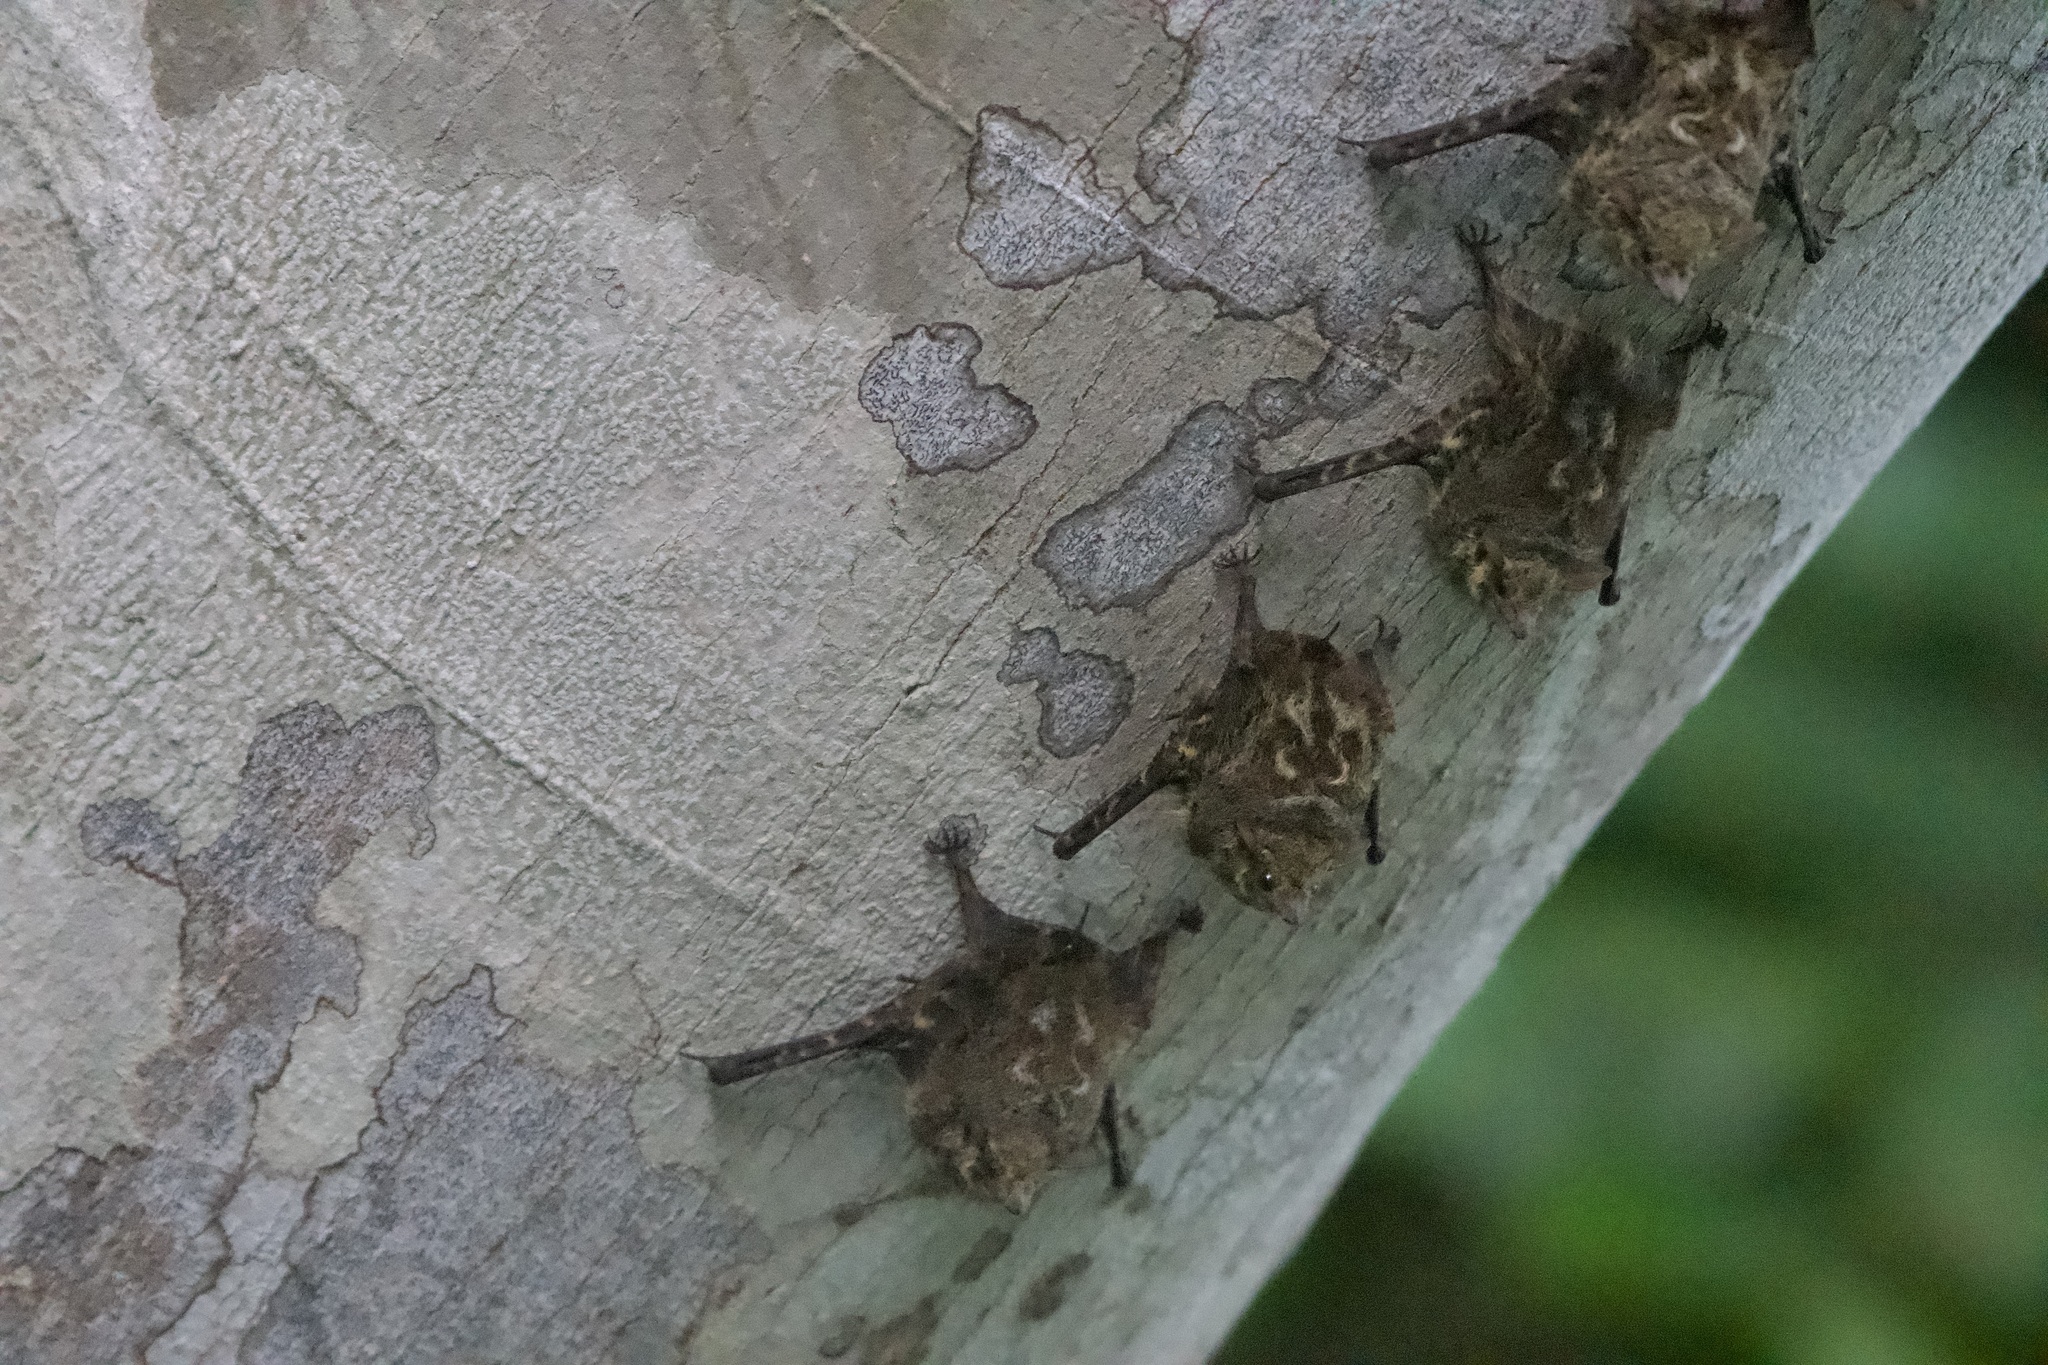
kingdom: Animalia
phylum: Chordata
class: Mammalia
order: Chiroptera
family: Emballonuridae
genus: Rhynchonycteris
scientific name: Rhynchonycteris naso
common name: Proboscis bat
